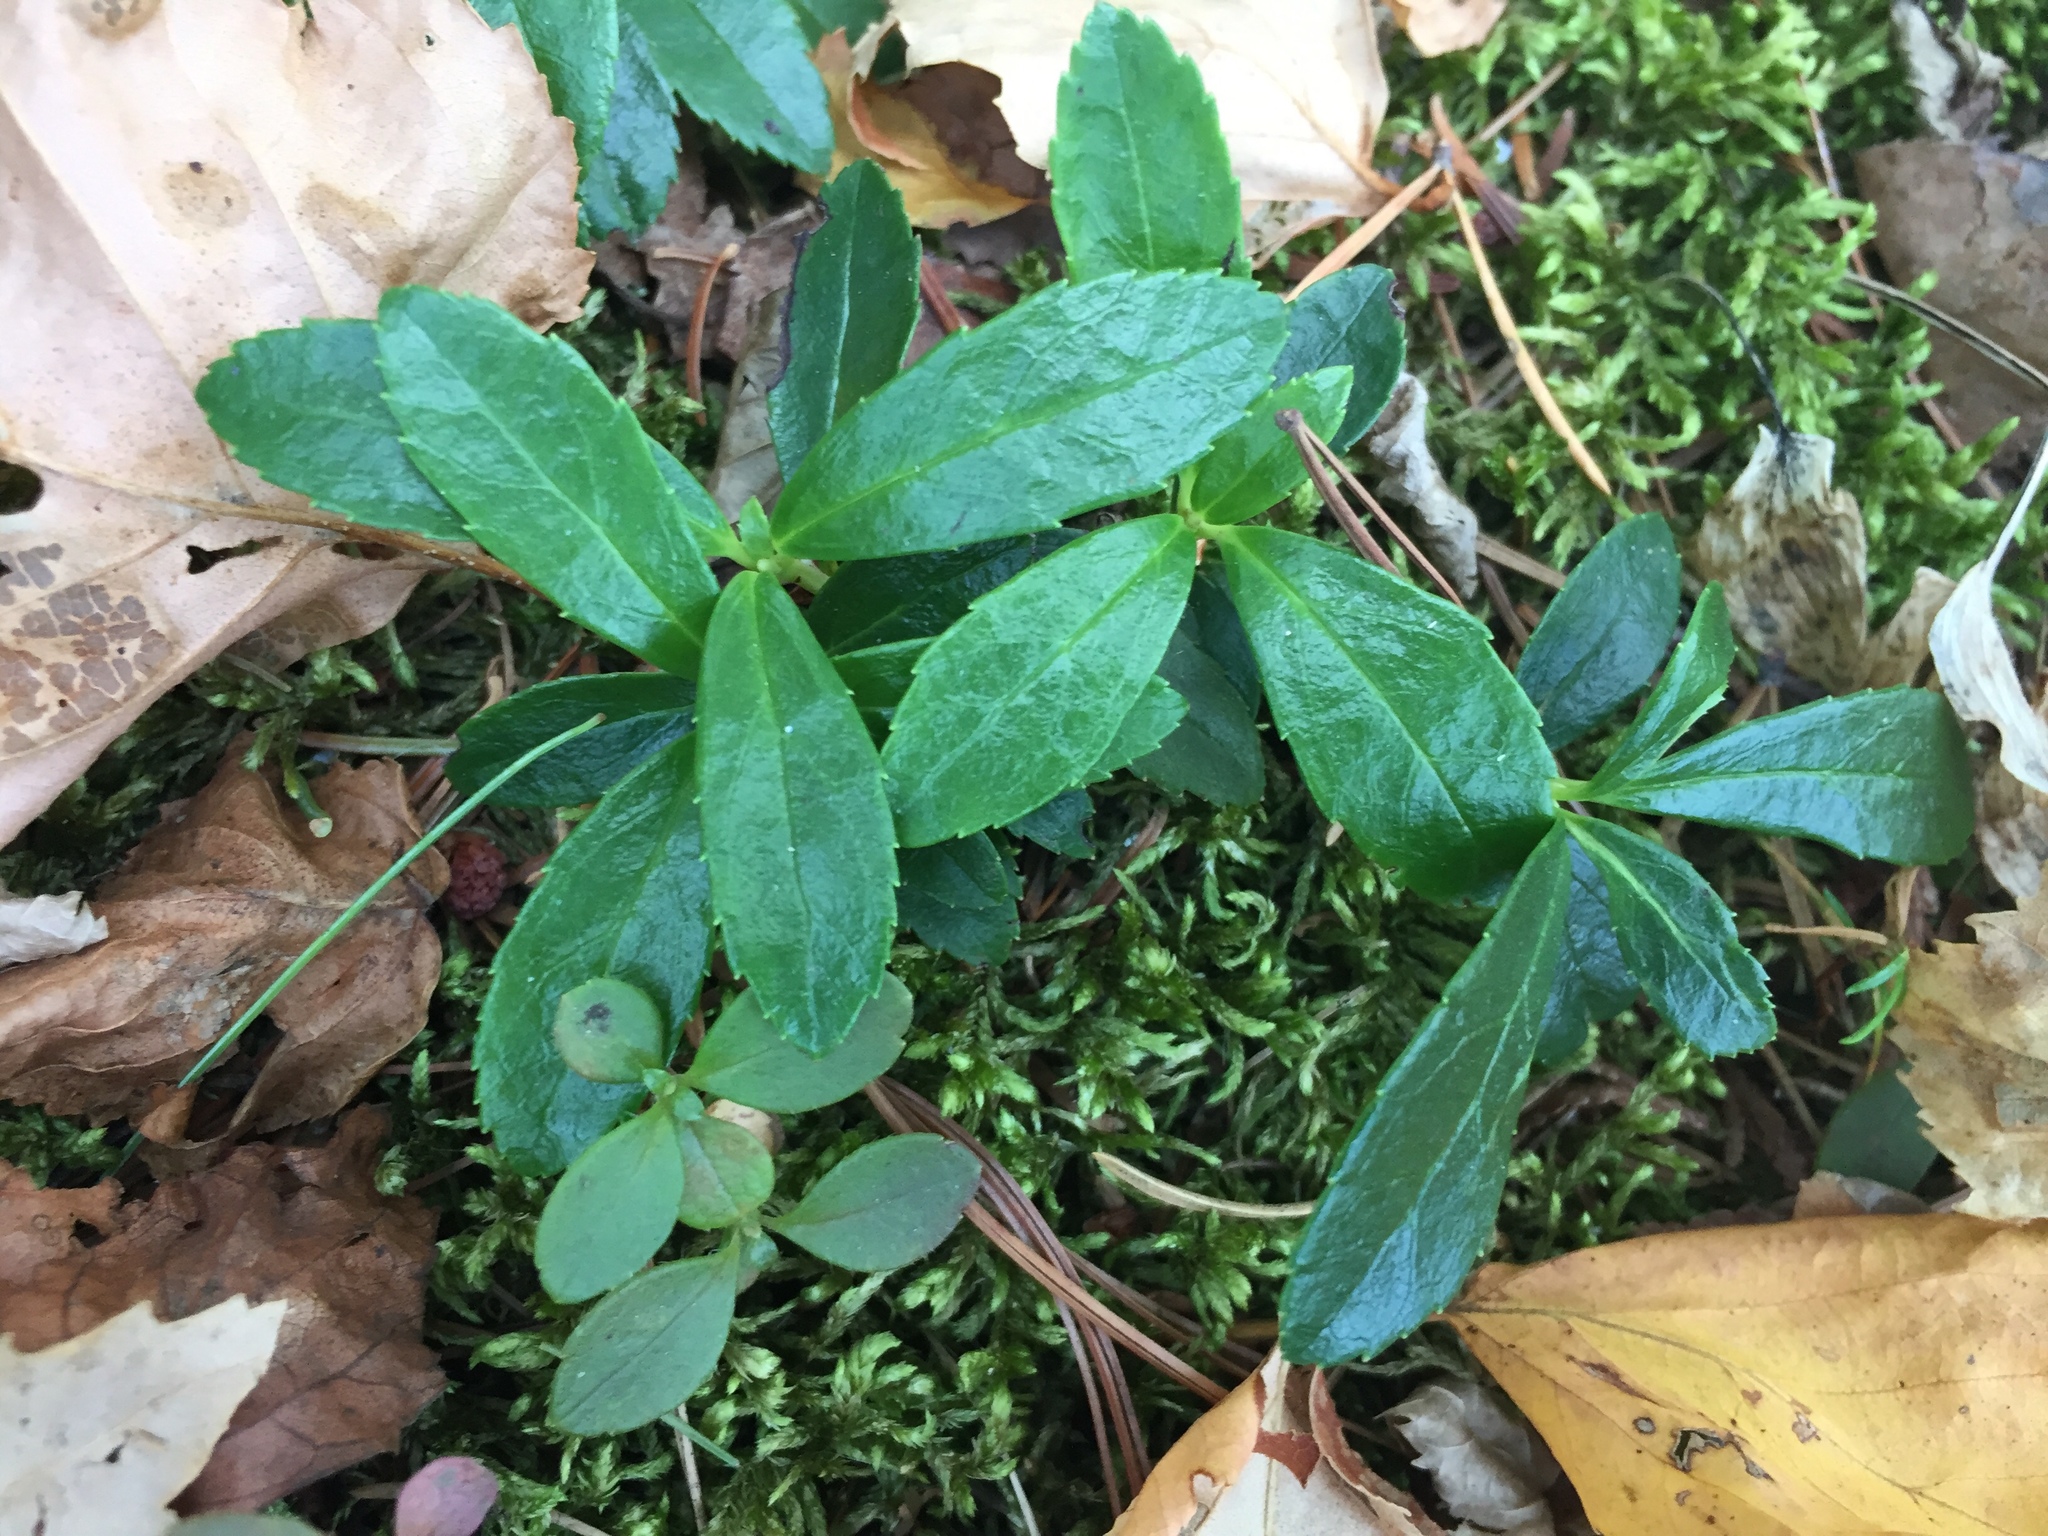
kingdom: Plantae
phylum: Tracheophyta
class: Magnoliopsida
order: Ericales
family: Ericaceae
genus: Chimaphila
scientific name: Chimaphila umbellata
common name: Pipsissewa
